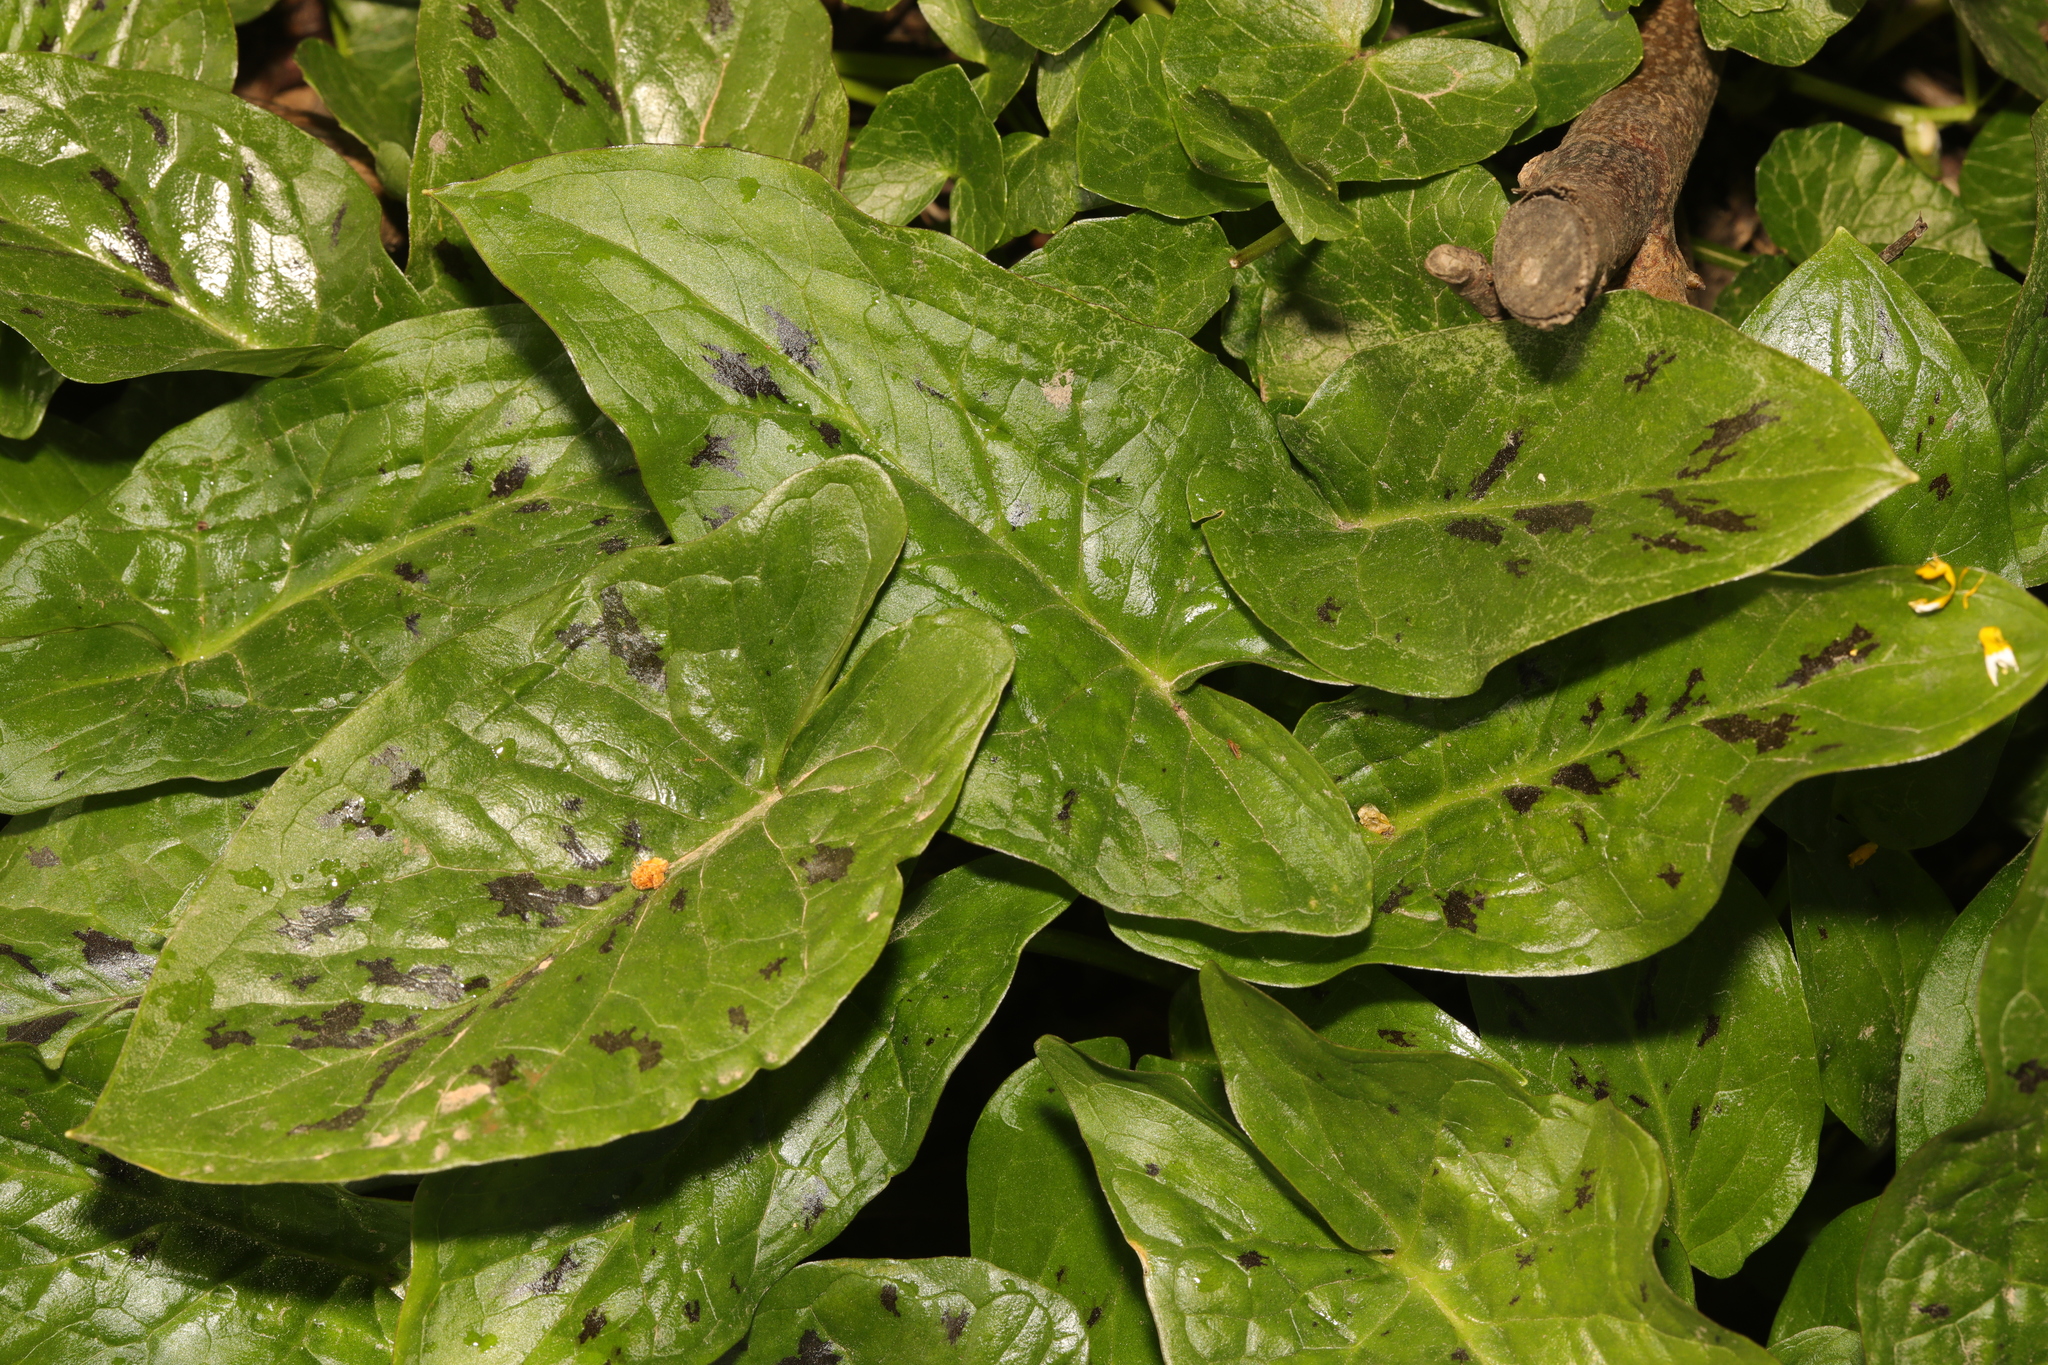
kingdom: Plantae
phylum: Tracheophyta
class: Liliopsida
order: Alismatales
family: Araceae
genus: Arum
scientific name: Arum maculatum
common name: Lords-and-ladies
